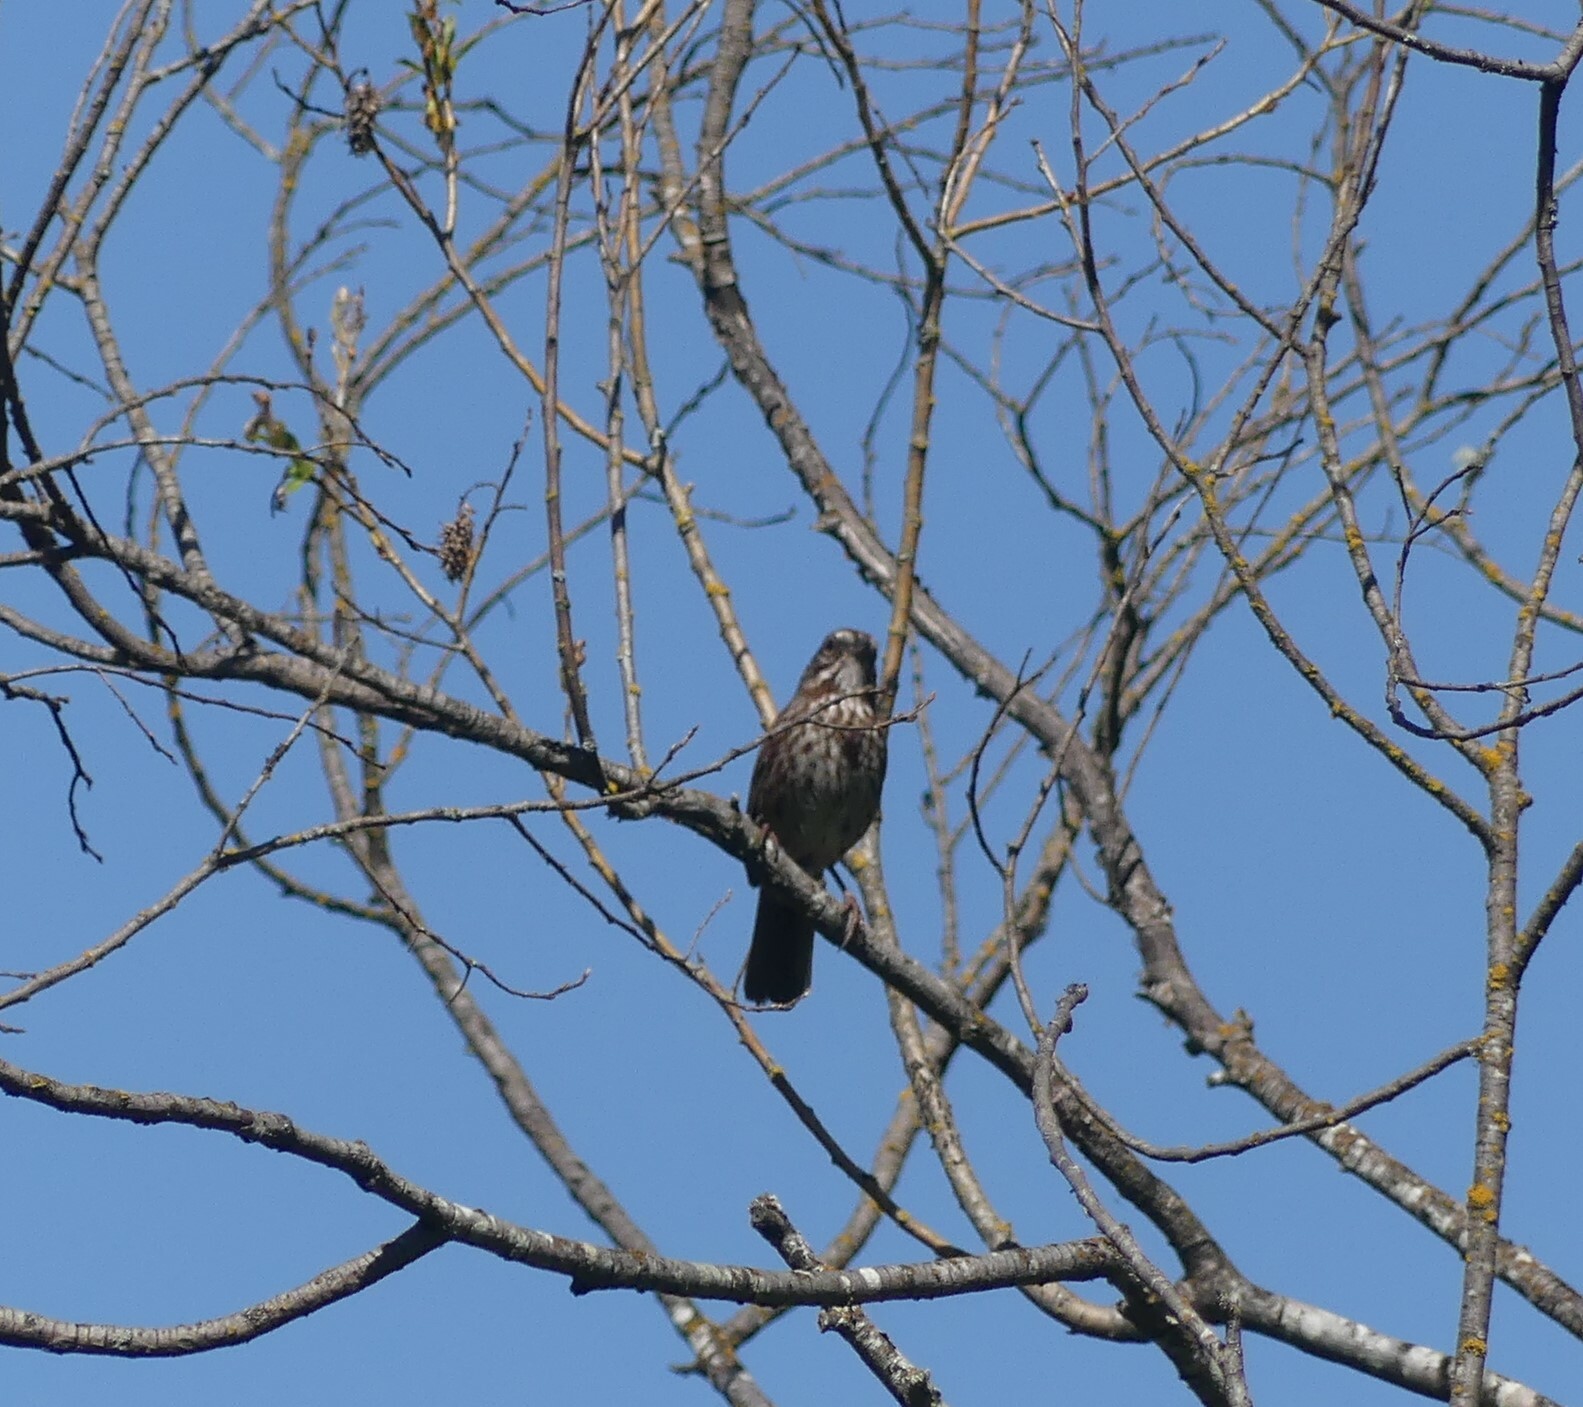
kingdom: Animalia
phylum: Chordata
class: Aves
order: Passeriformes
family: Passerellidae
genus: Melospiza
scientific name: Melospiza melodia
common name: Song sparrow
